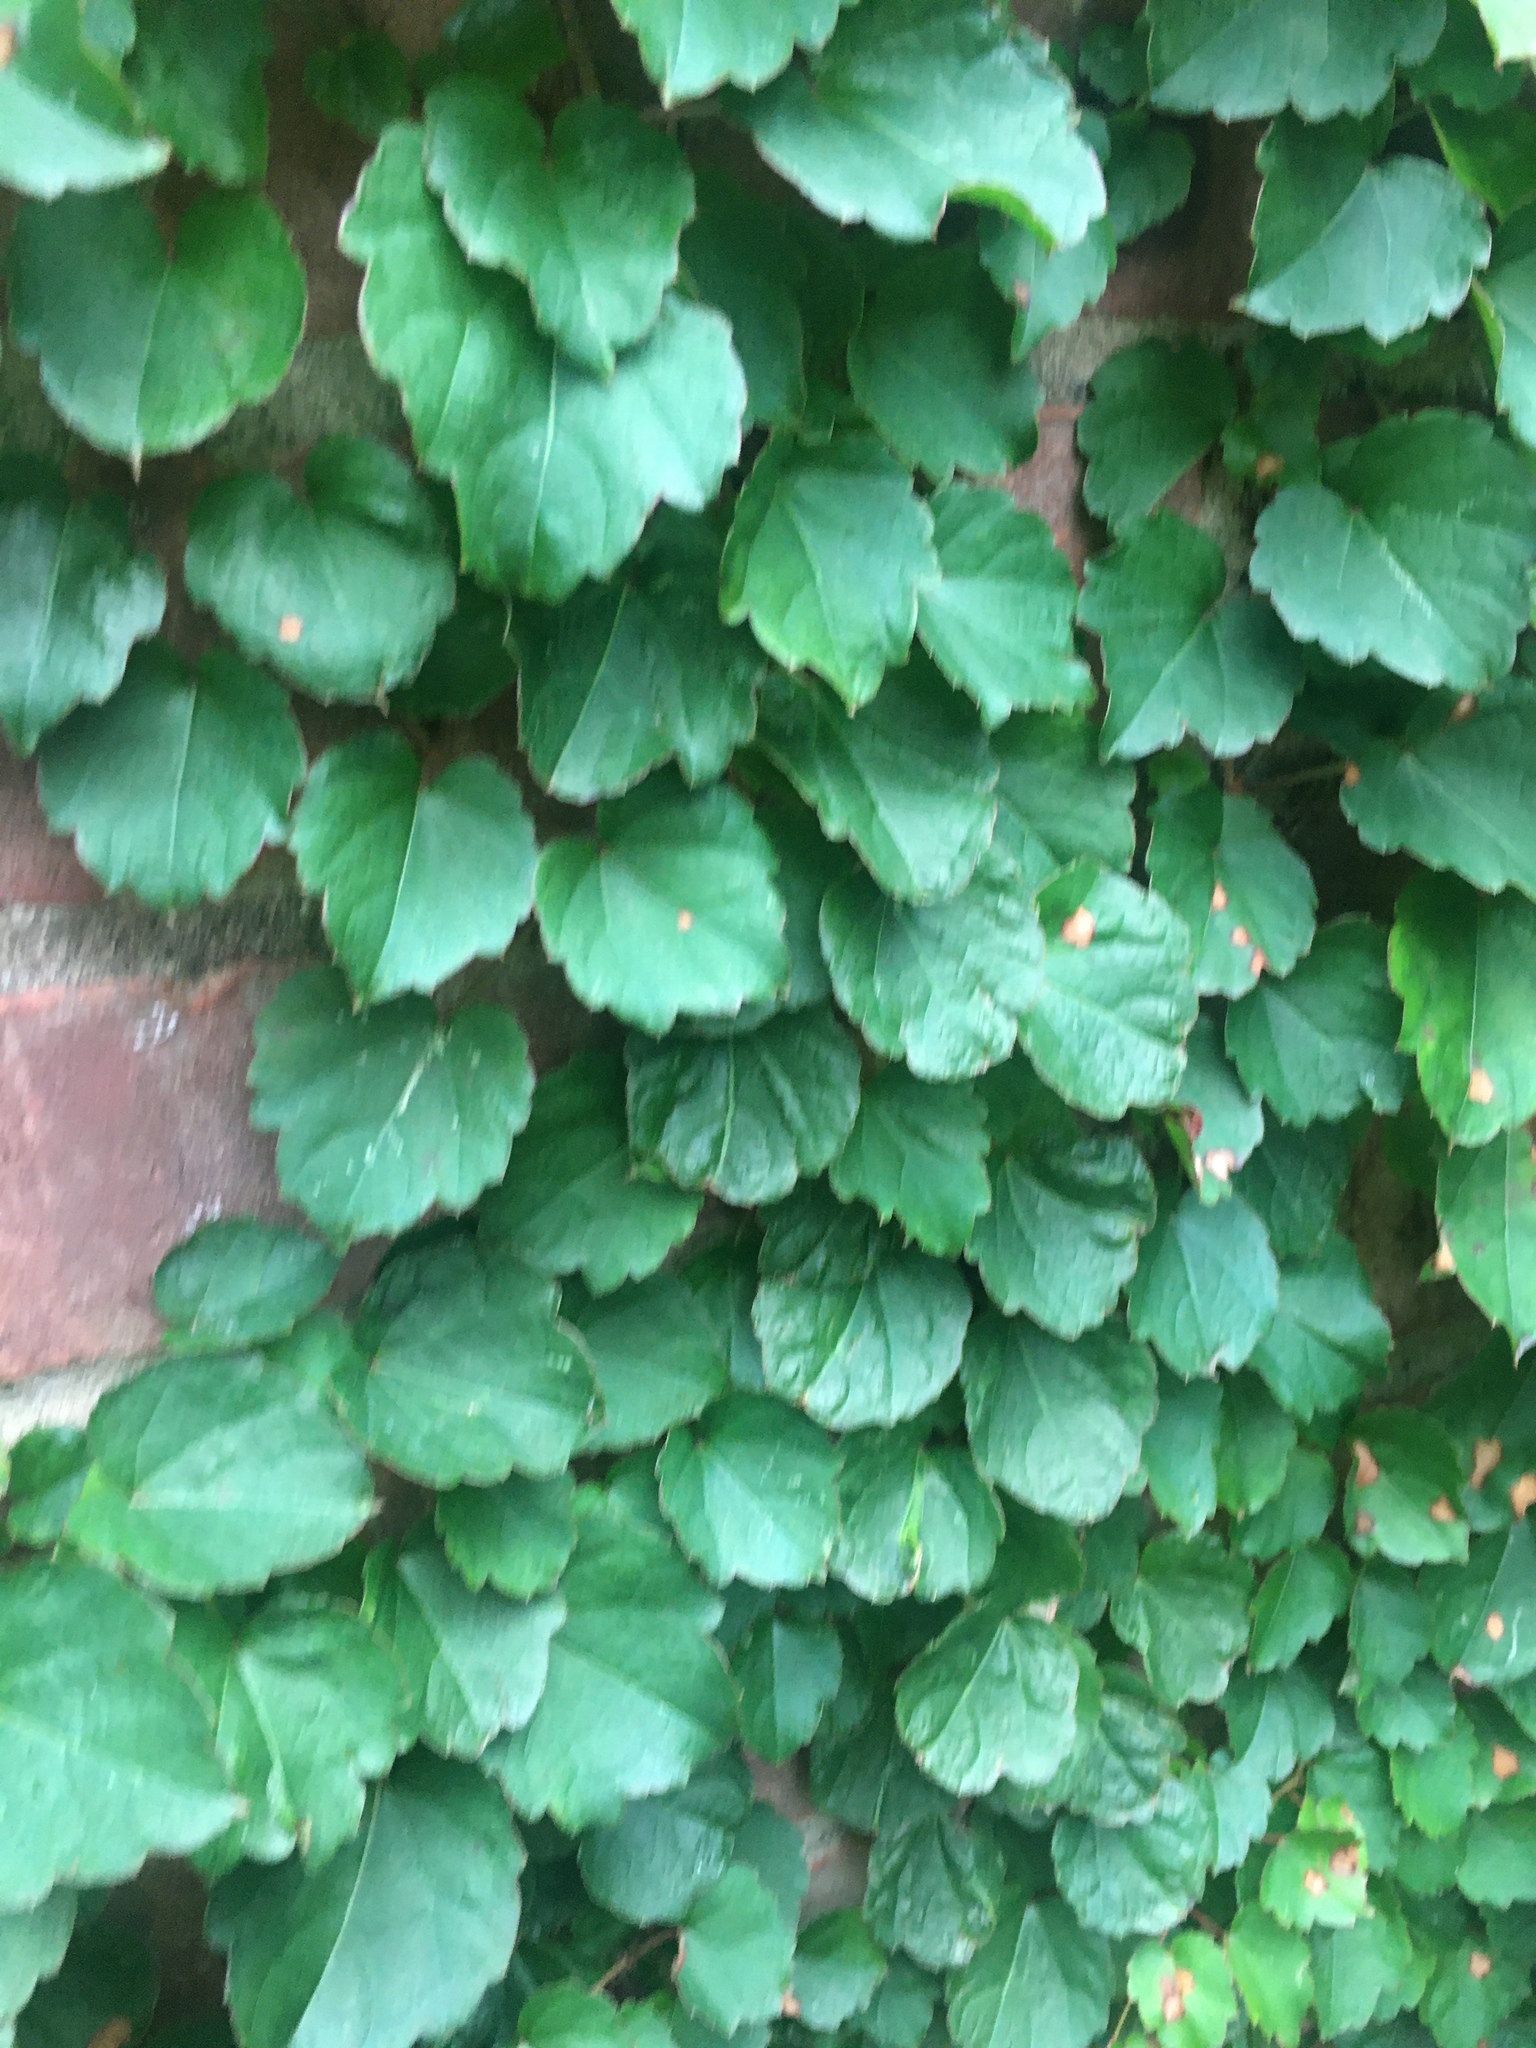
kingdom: Plantae
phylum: Tracheophyta
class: Magnoliopsida
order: Vitales
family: Vitaceae
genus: Parthenocissus
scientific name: Parthenocissus tricuspidata
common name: Boston ivy
